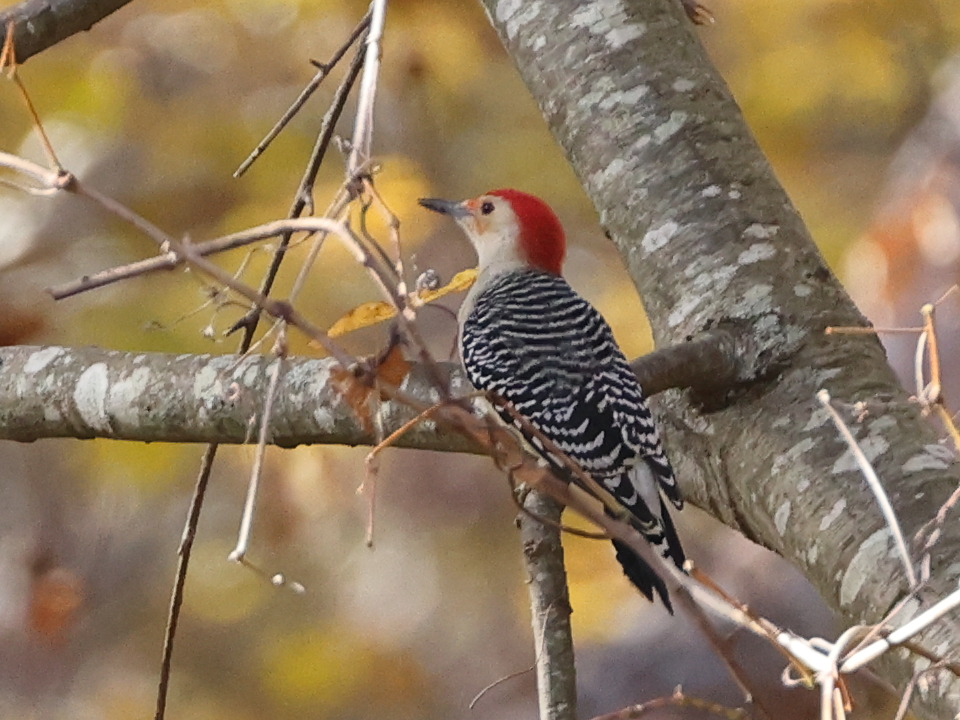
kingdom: Animalia
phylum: Chordata
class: Aves
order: Piciformes
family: Picidae
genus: Melanerpes
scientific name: Melanerpes carolinus
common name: Red-bellied woodpecker
